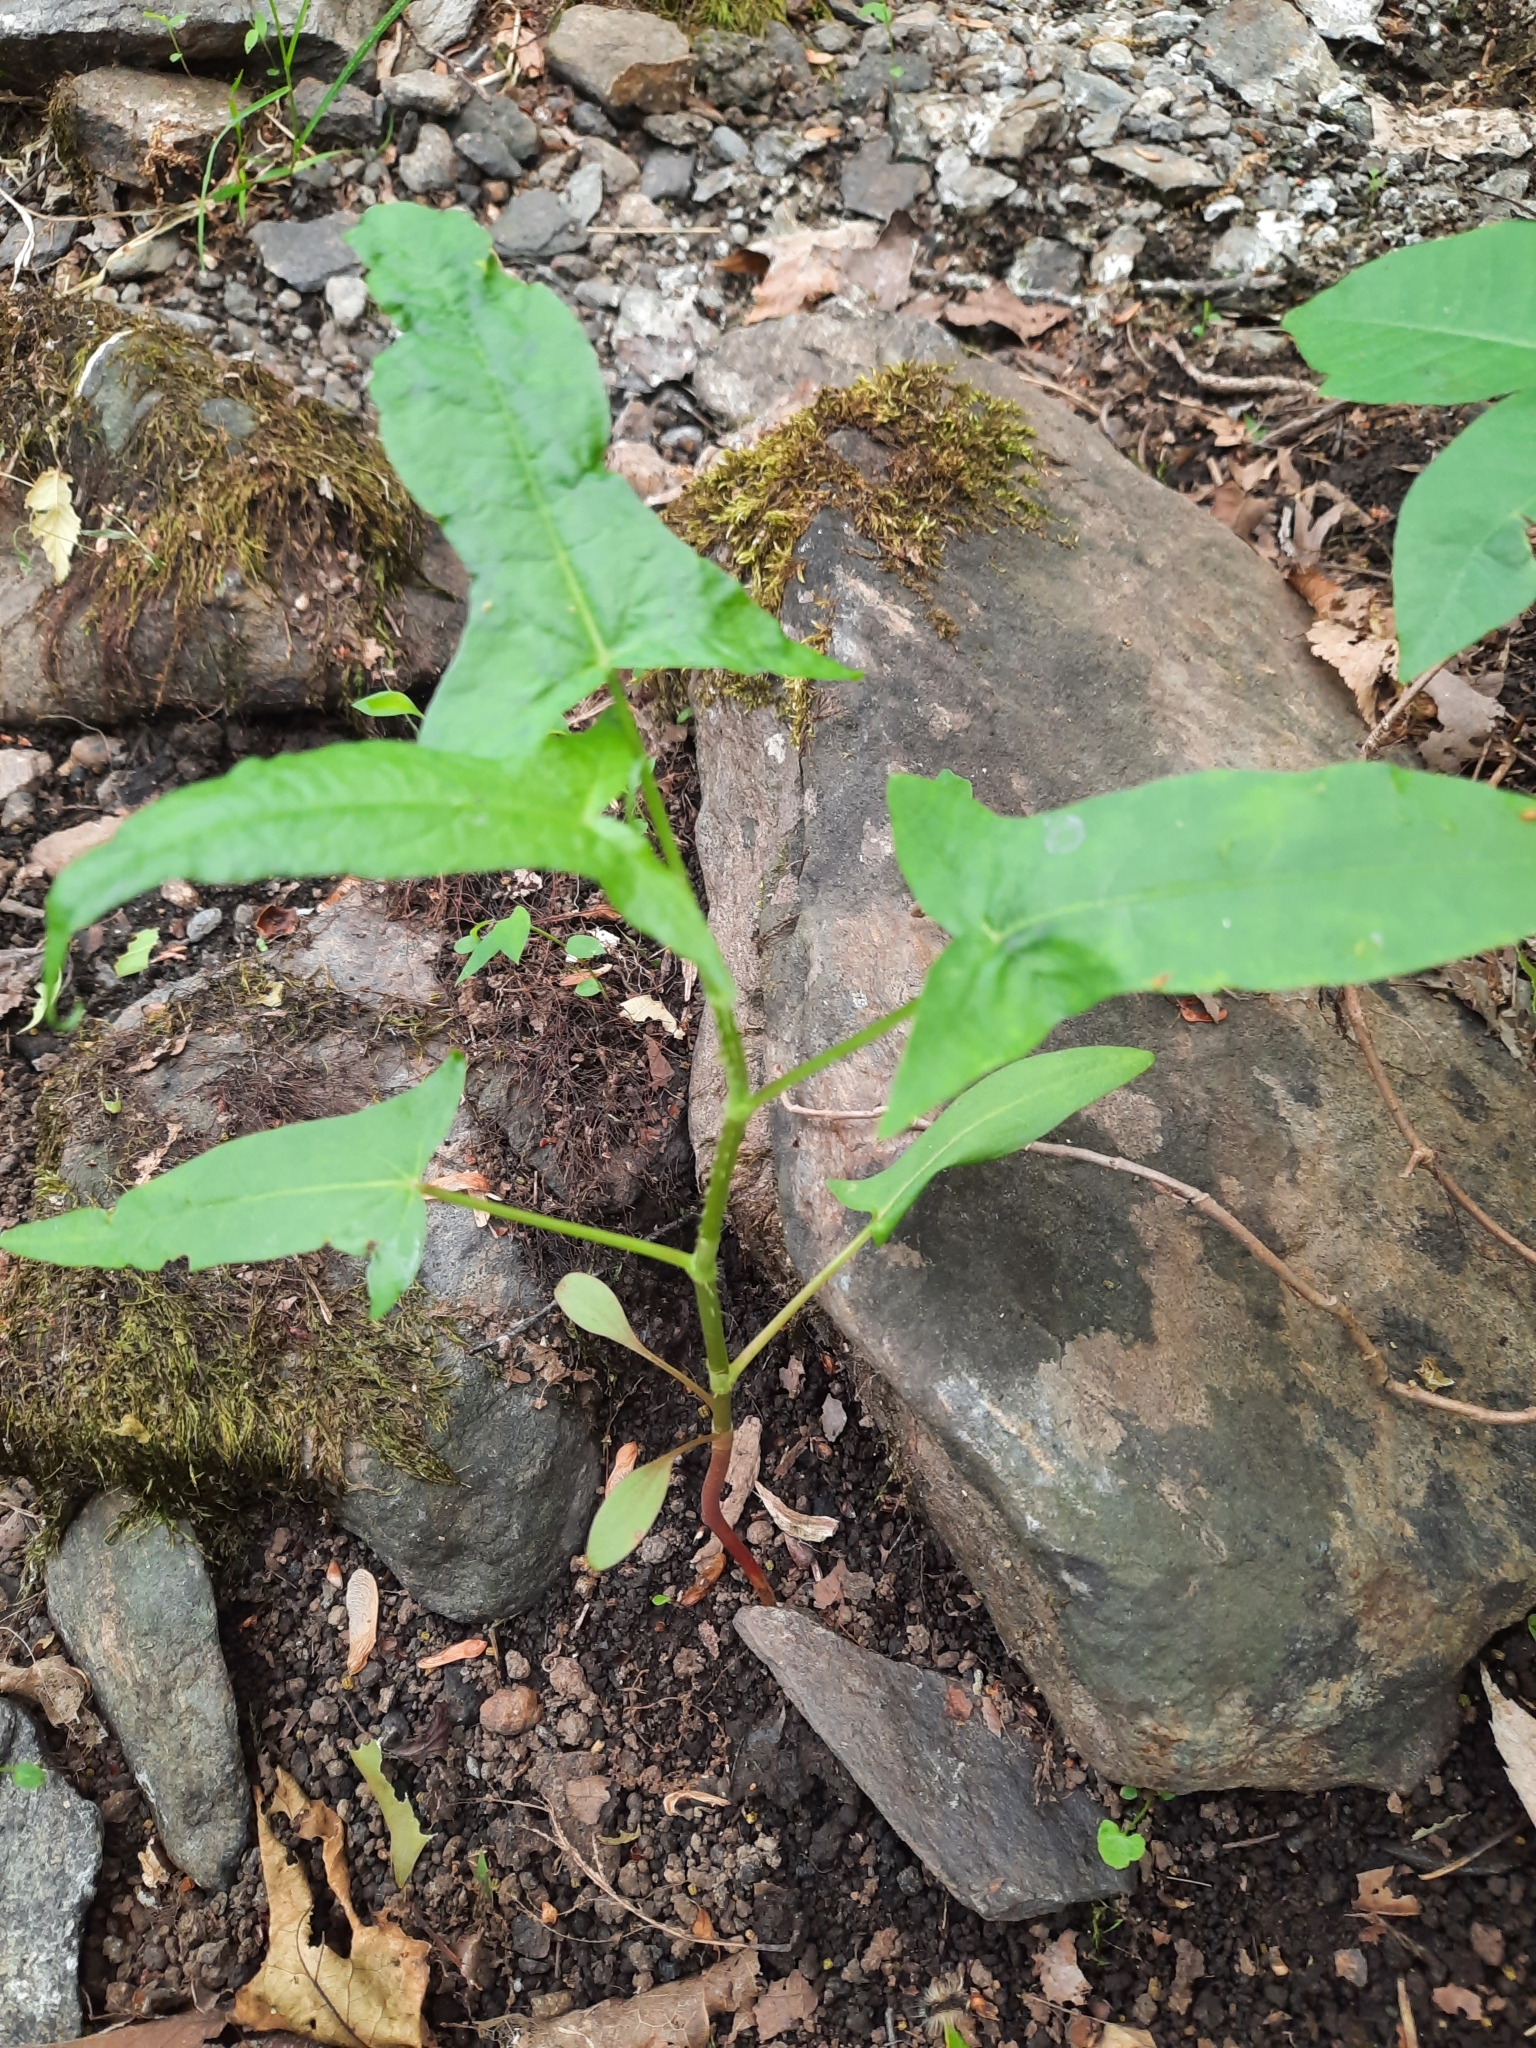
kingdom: Plantae
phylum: Tracheophyta
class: Magnoliopsida
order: Caryophyllales
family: Polygonaceae
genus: Persicaria
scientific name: Persicaria arifolia
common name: Halberd-leaved tear-thumb
